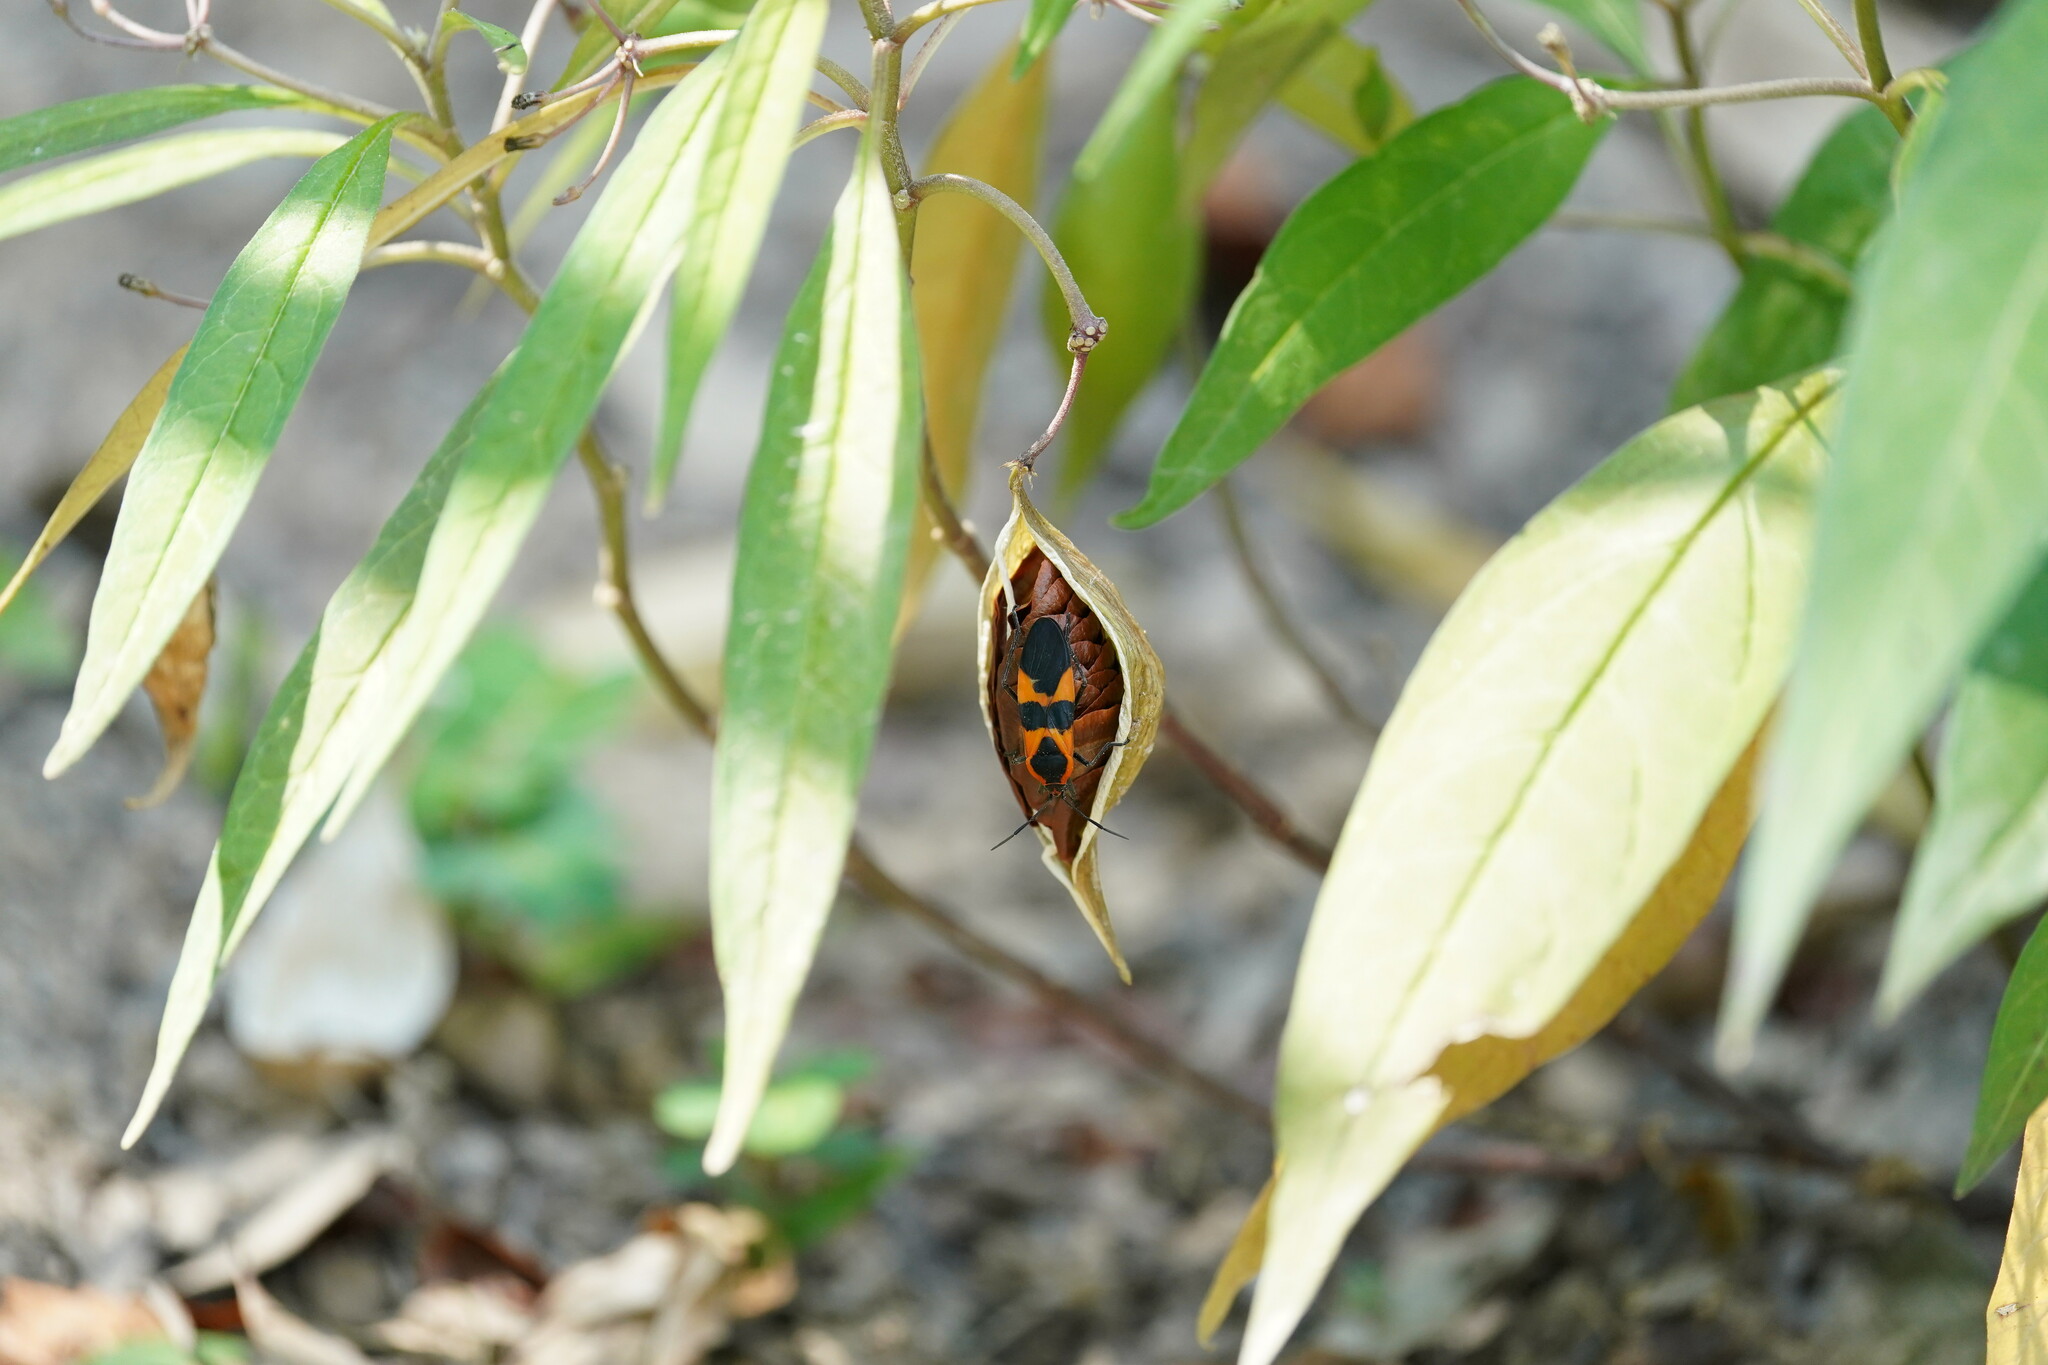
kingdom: Animalia
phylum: Arthropoda
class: Insecta
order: Hemiptera
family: Lygaeidae
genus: Oncopeltus
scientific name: Oncopeltus fasciatus
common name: Large milkweed bug
